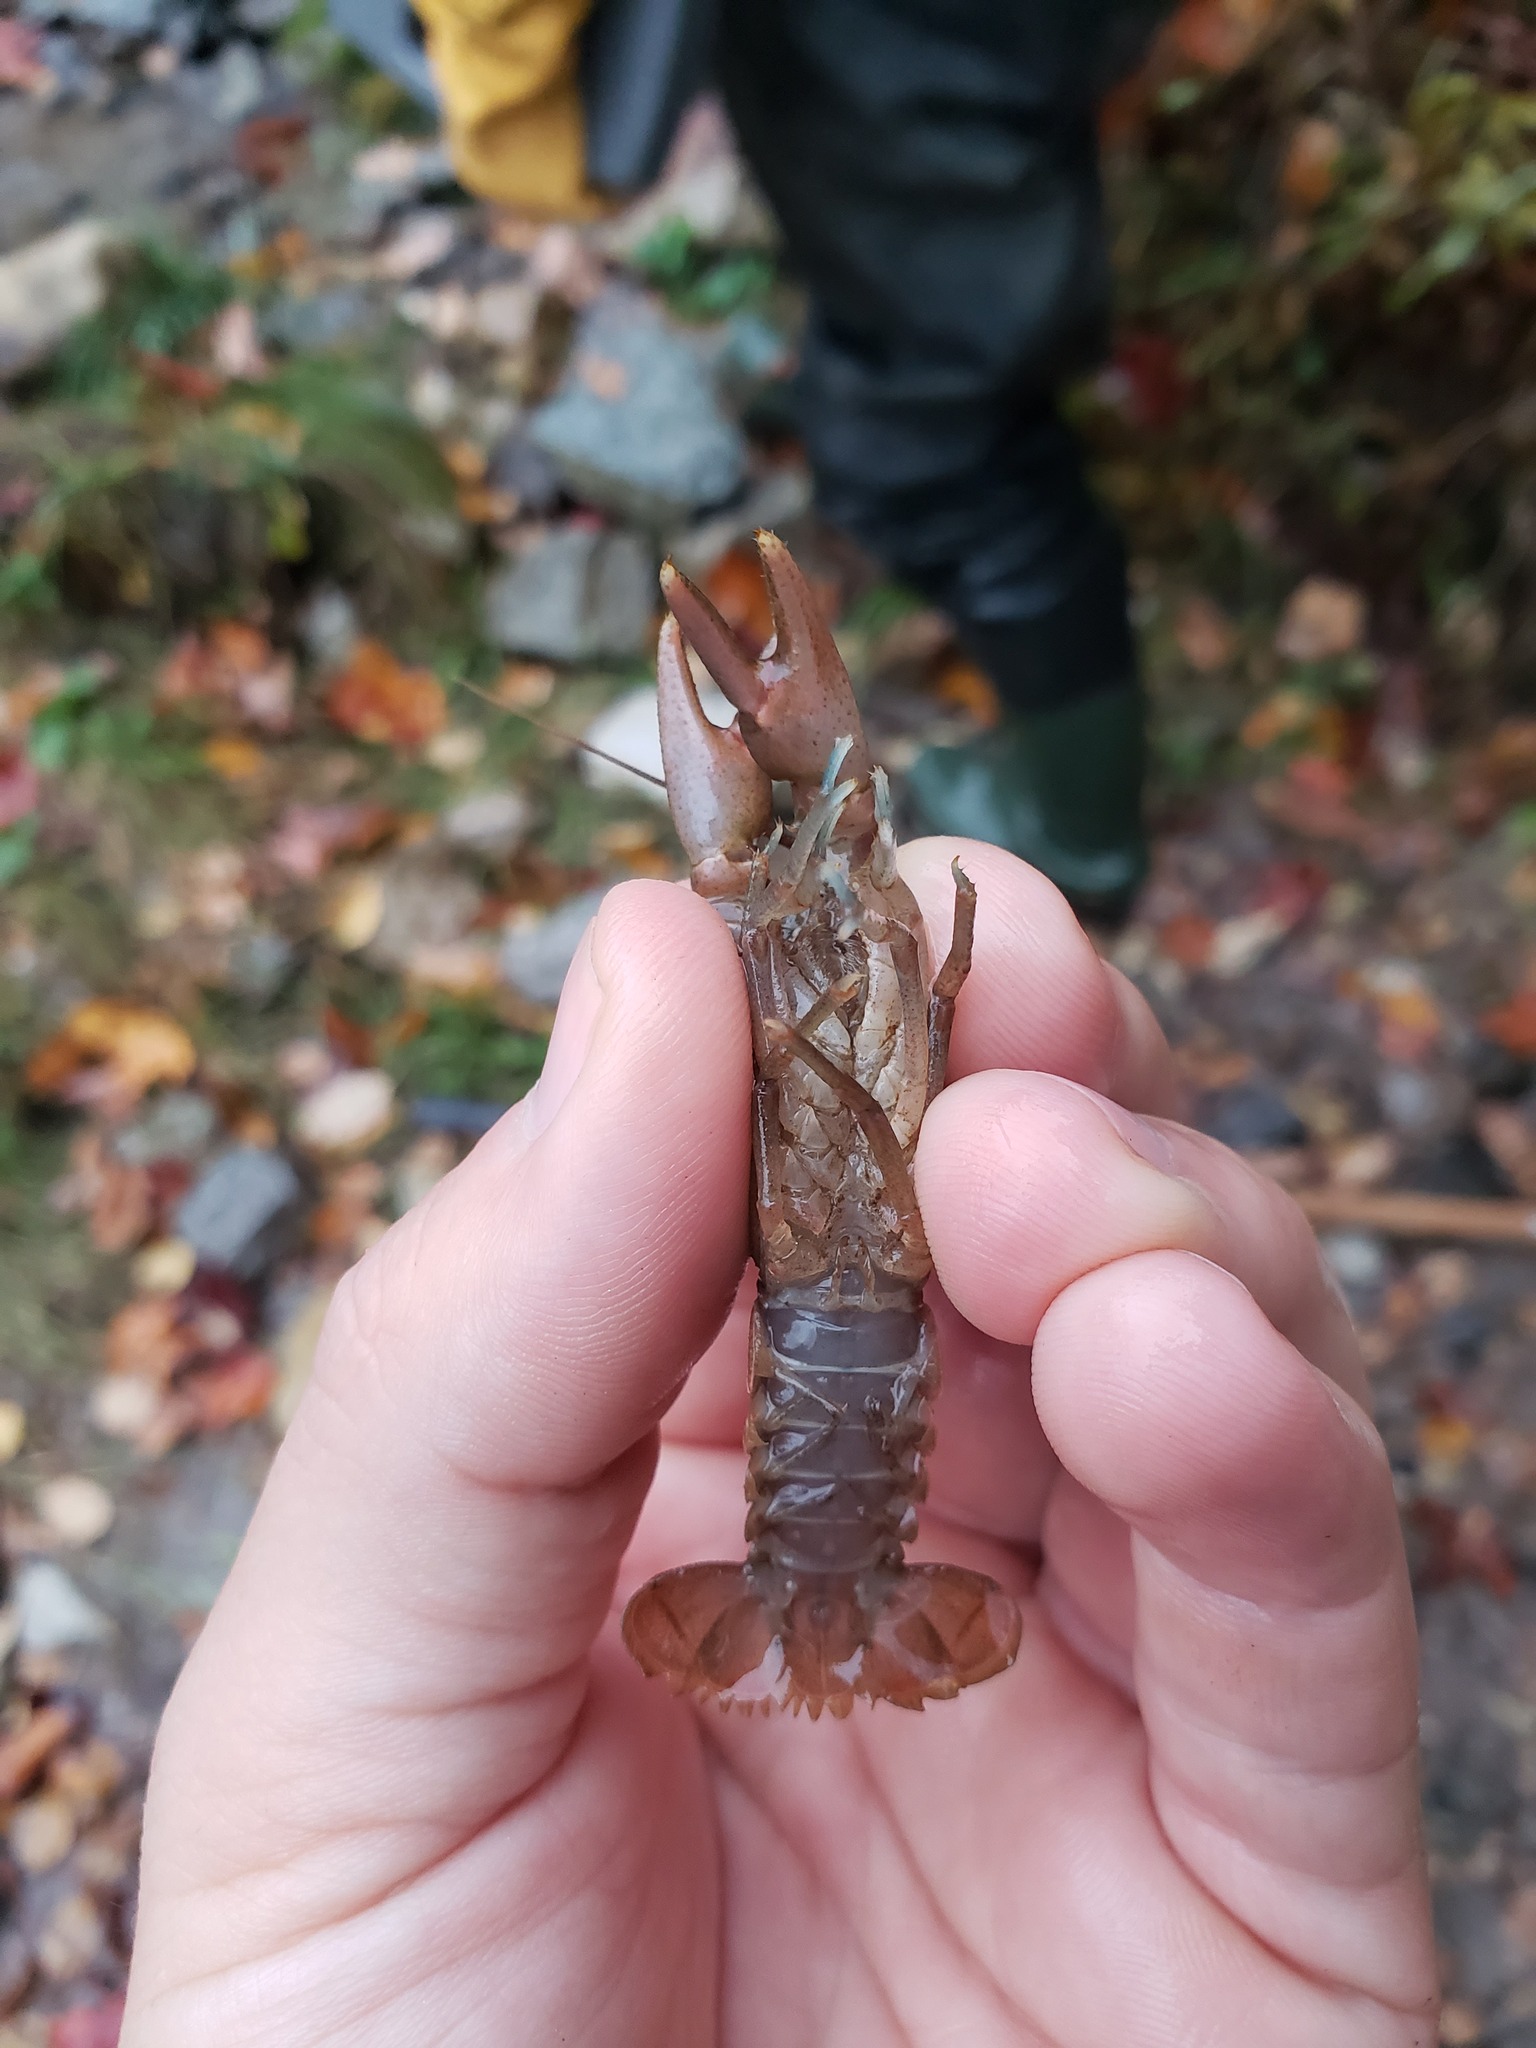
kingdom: Animalia
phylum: Arthropoda
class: Malacostraca
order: Decapoda
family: Cambaridae
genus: Cambarus
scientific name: Cambarus robustus
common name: Big water crayfish
